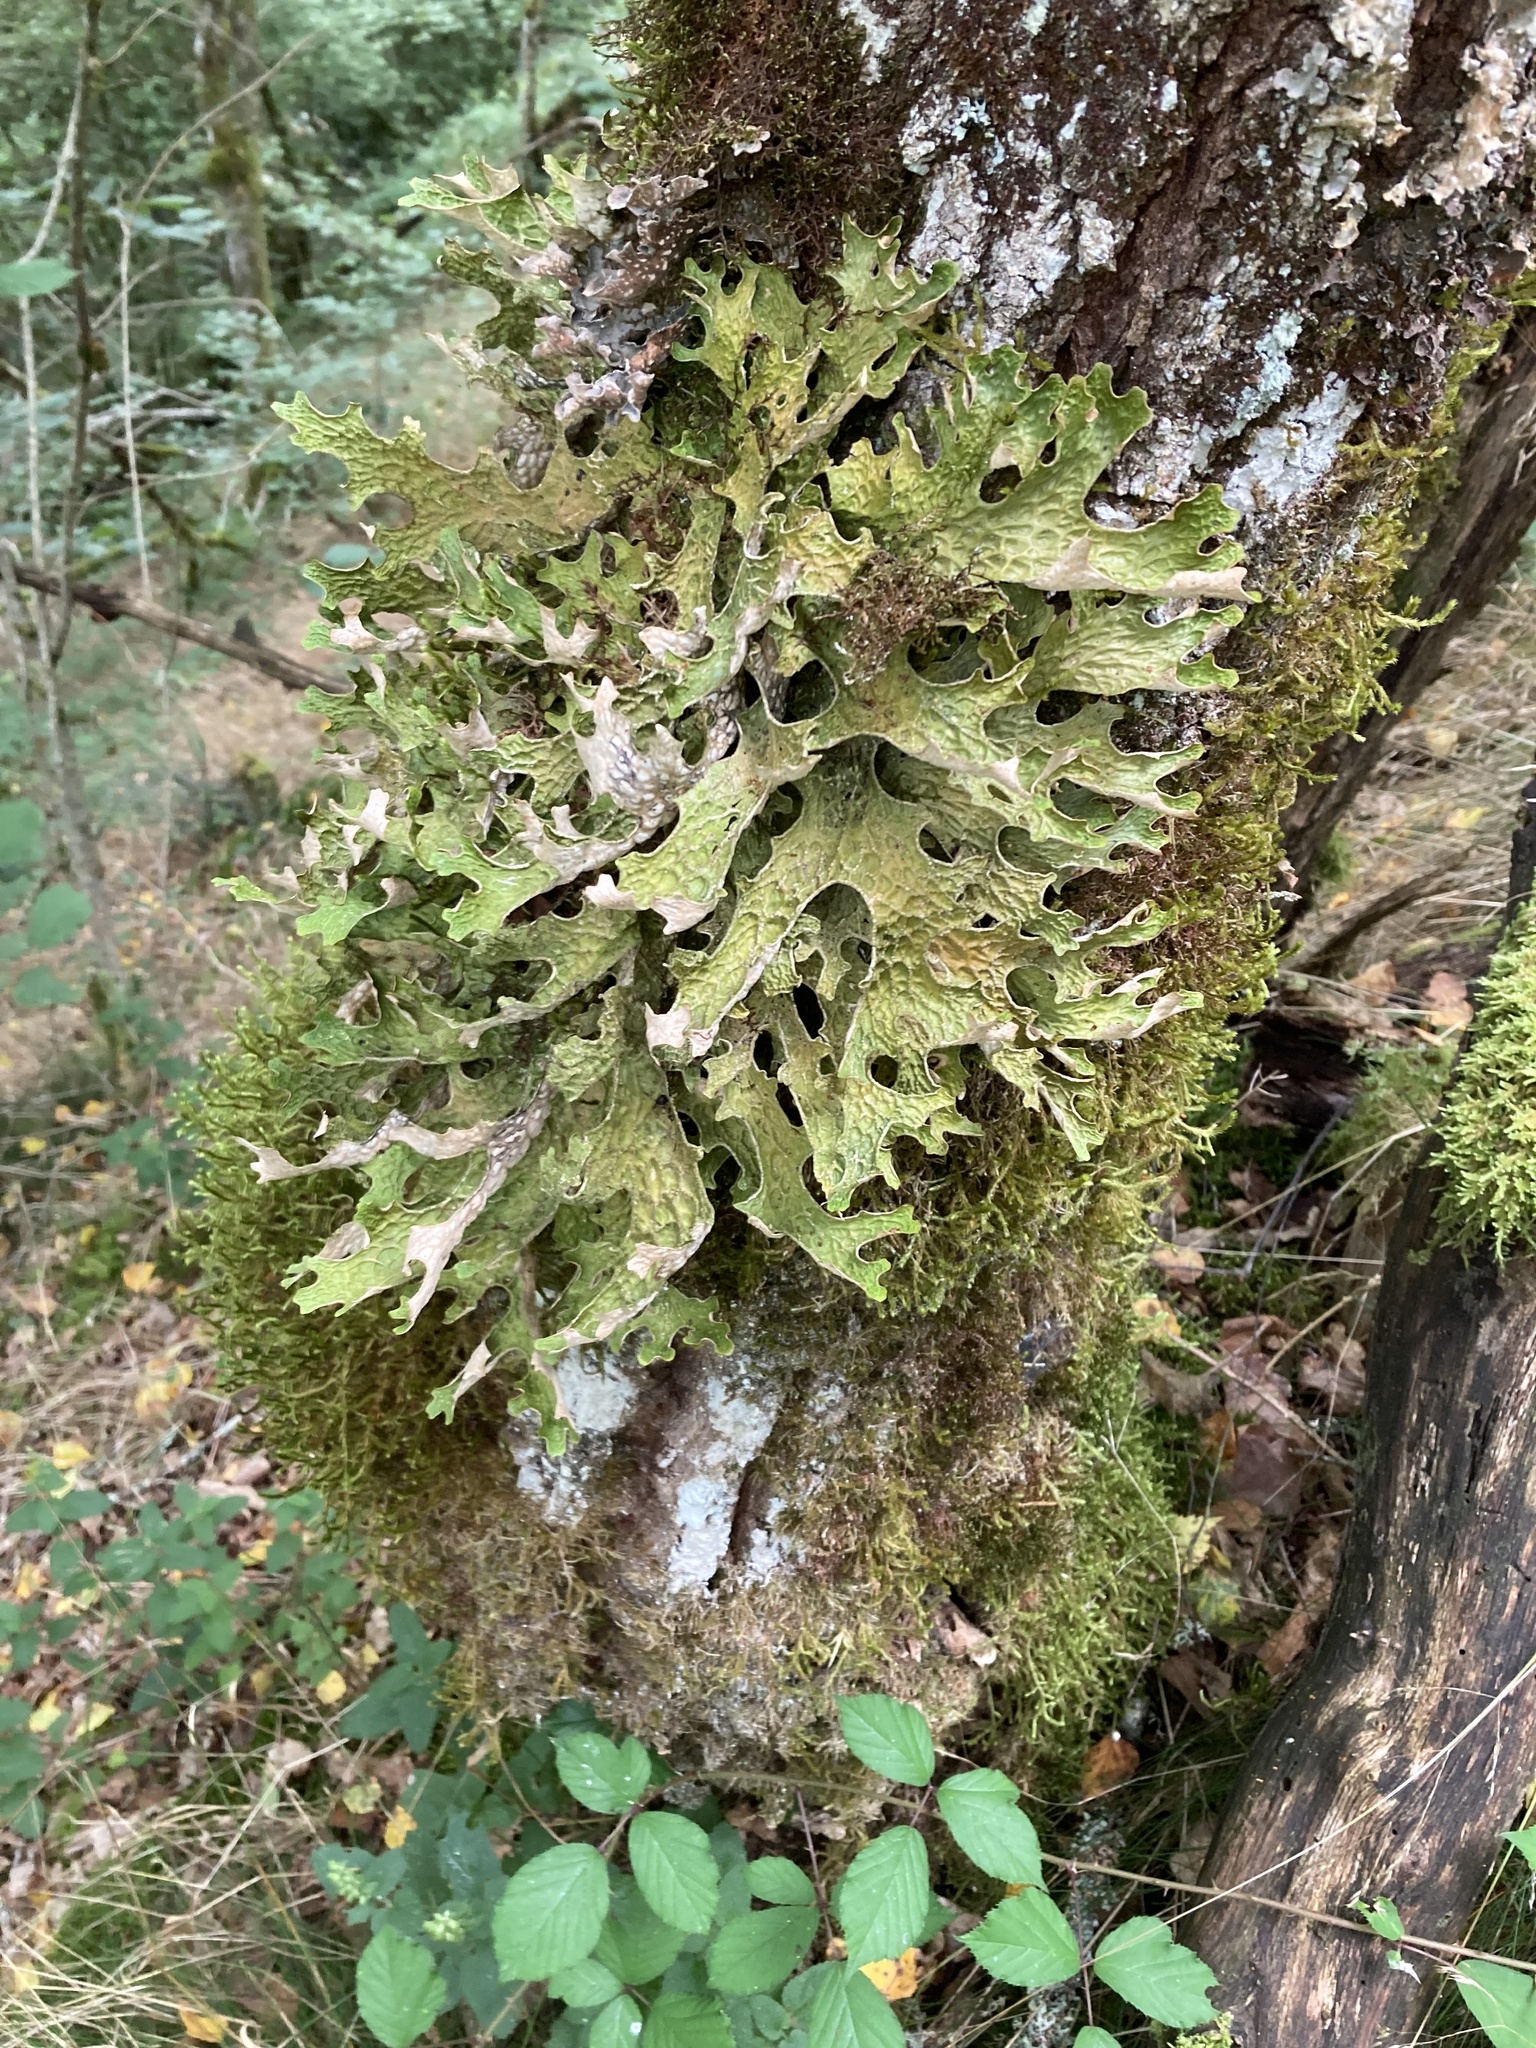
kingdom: Fungi
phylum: Ascomycota
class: Lecanoromycetes
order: Peltigerales
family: Lobariaceae
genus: Lobaria
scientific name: Lobaria pulmonaria
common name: Lungwort
